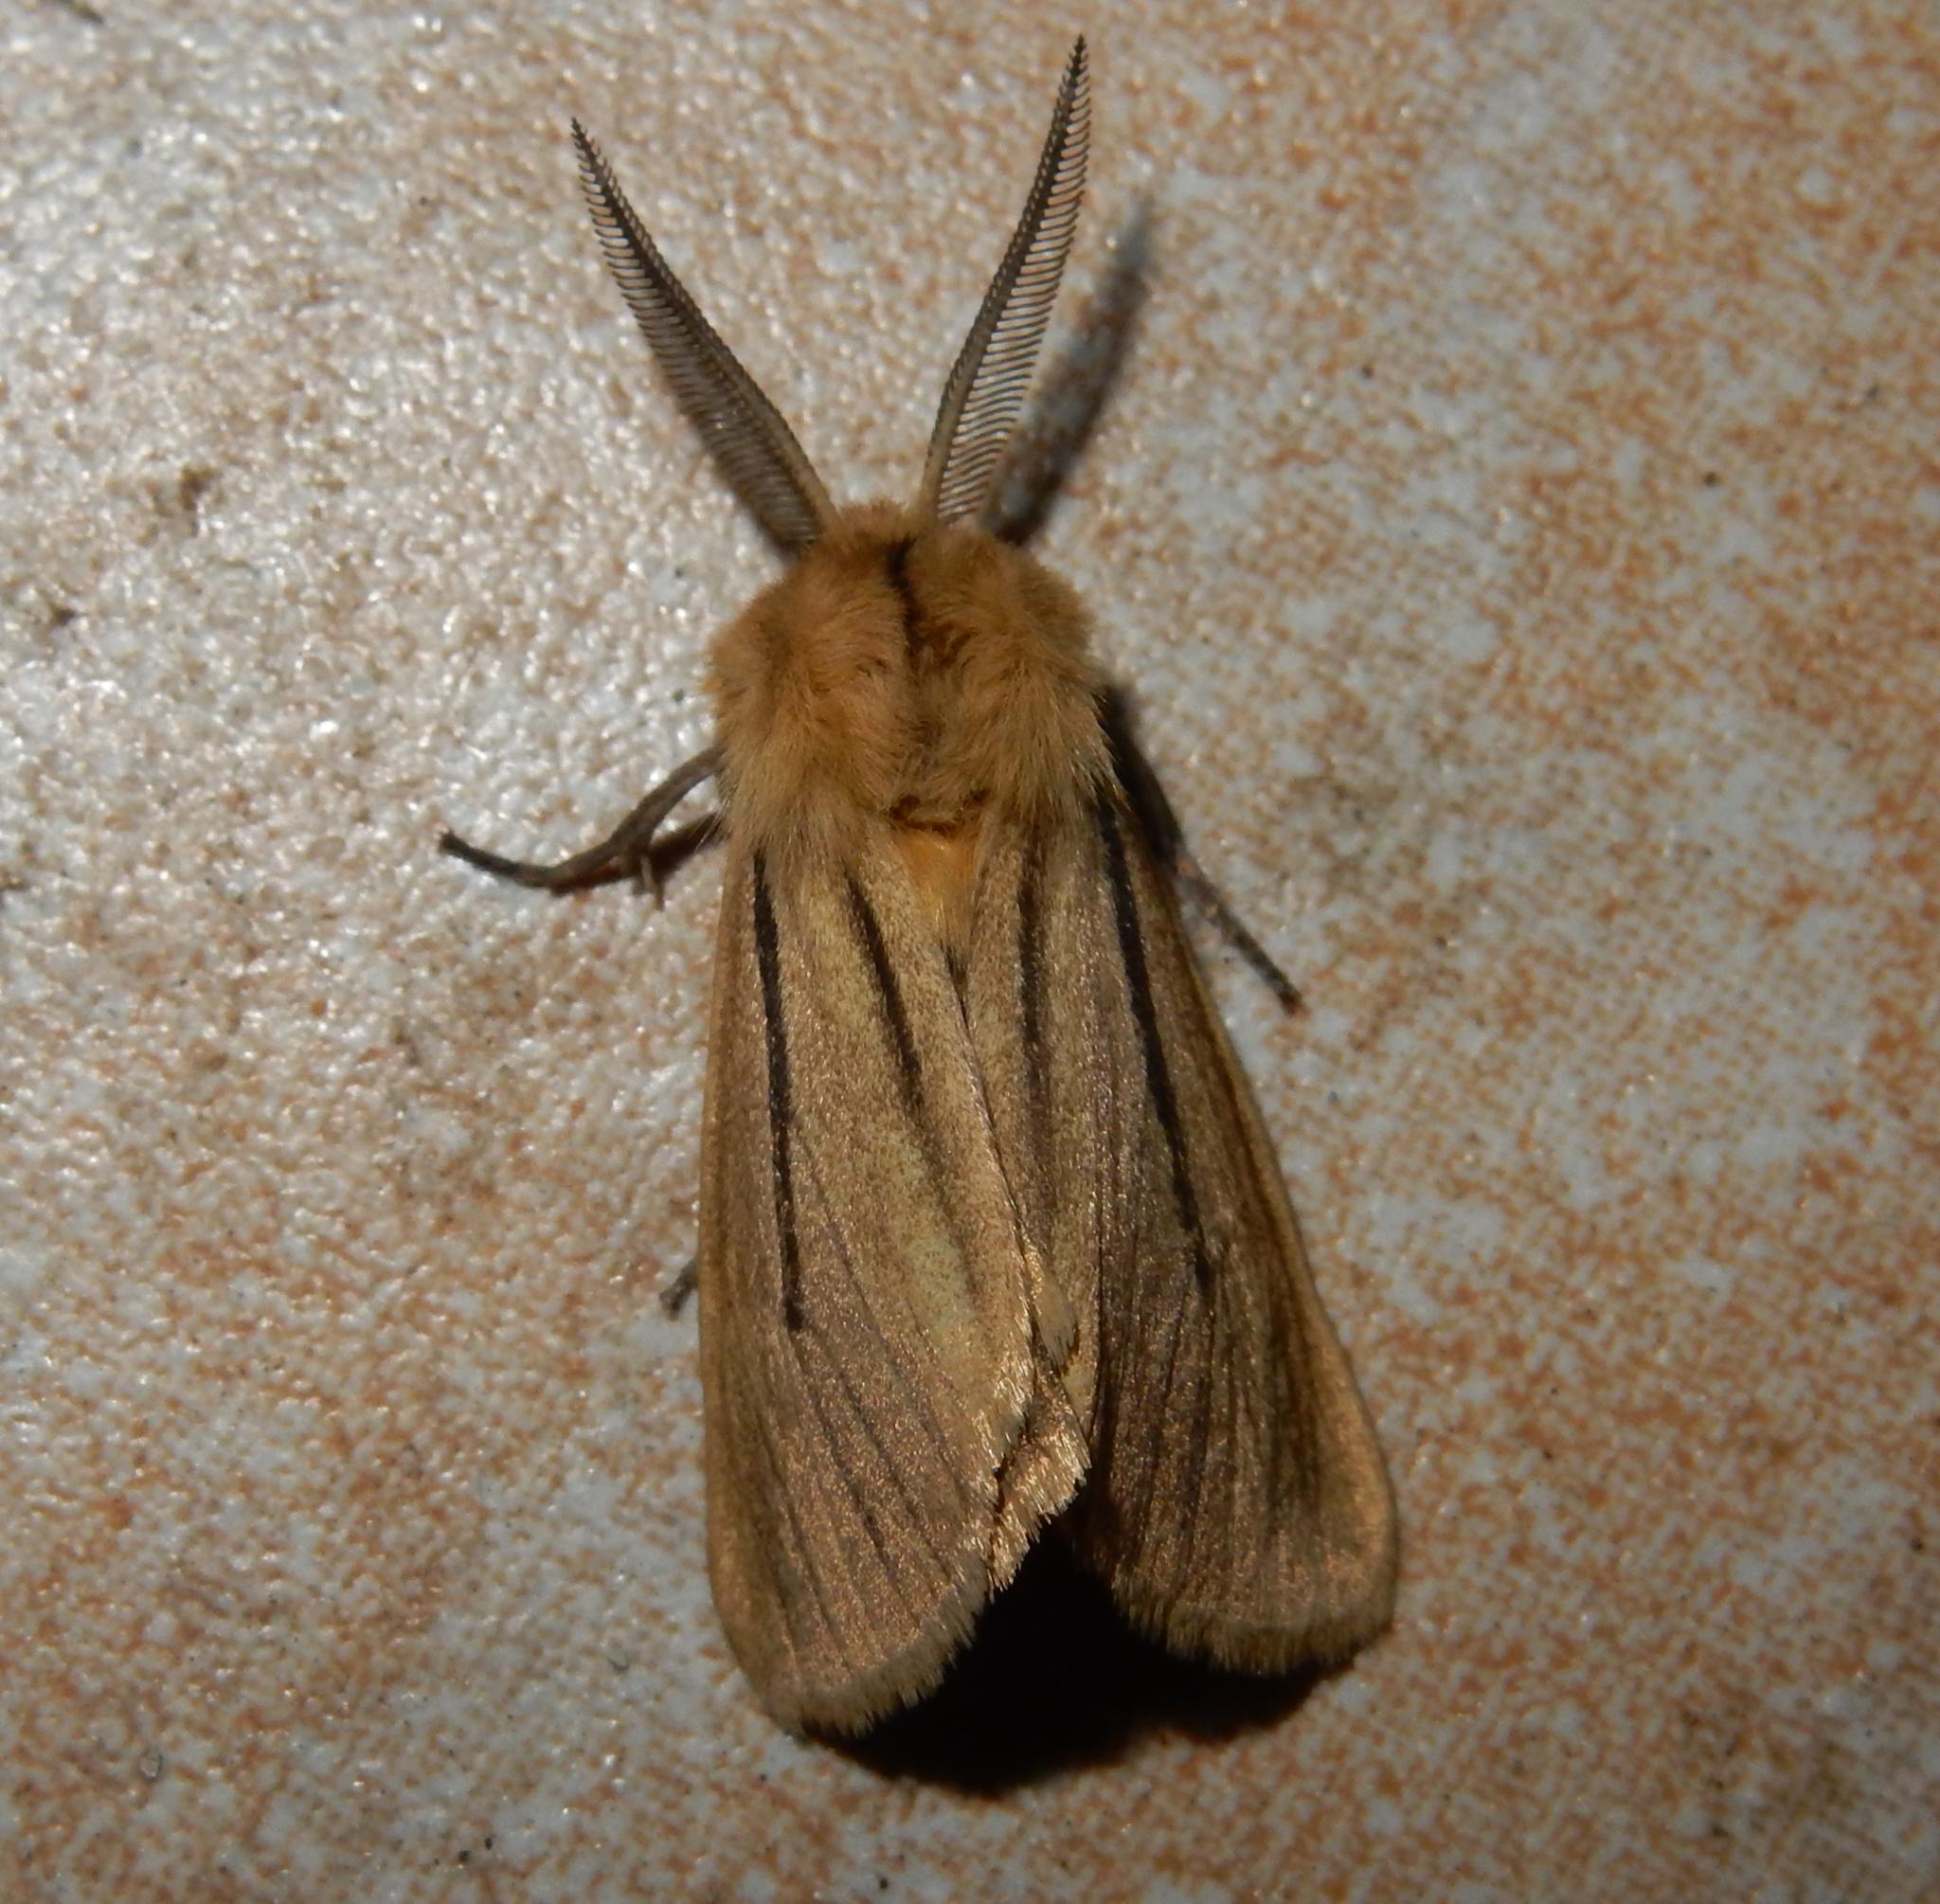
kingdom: Animalia
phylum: Arthropoda
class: Insecta
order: Lepidoptera
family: Erebidae
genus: Popoudina
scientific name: Popoudina linea
